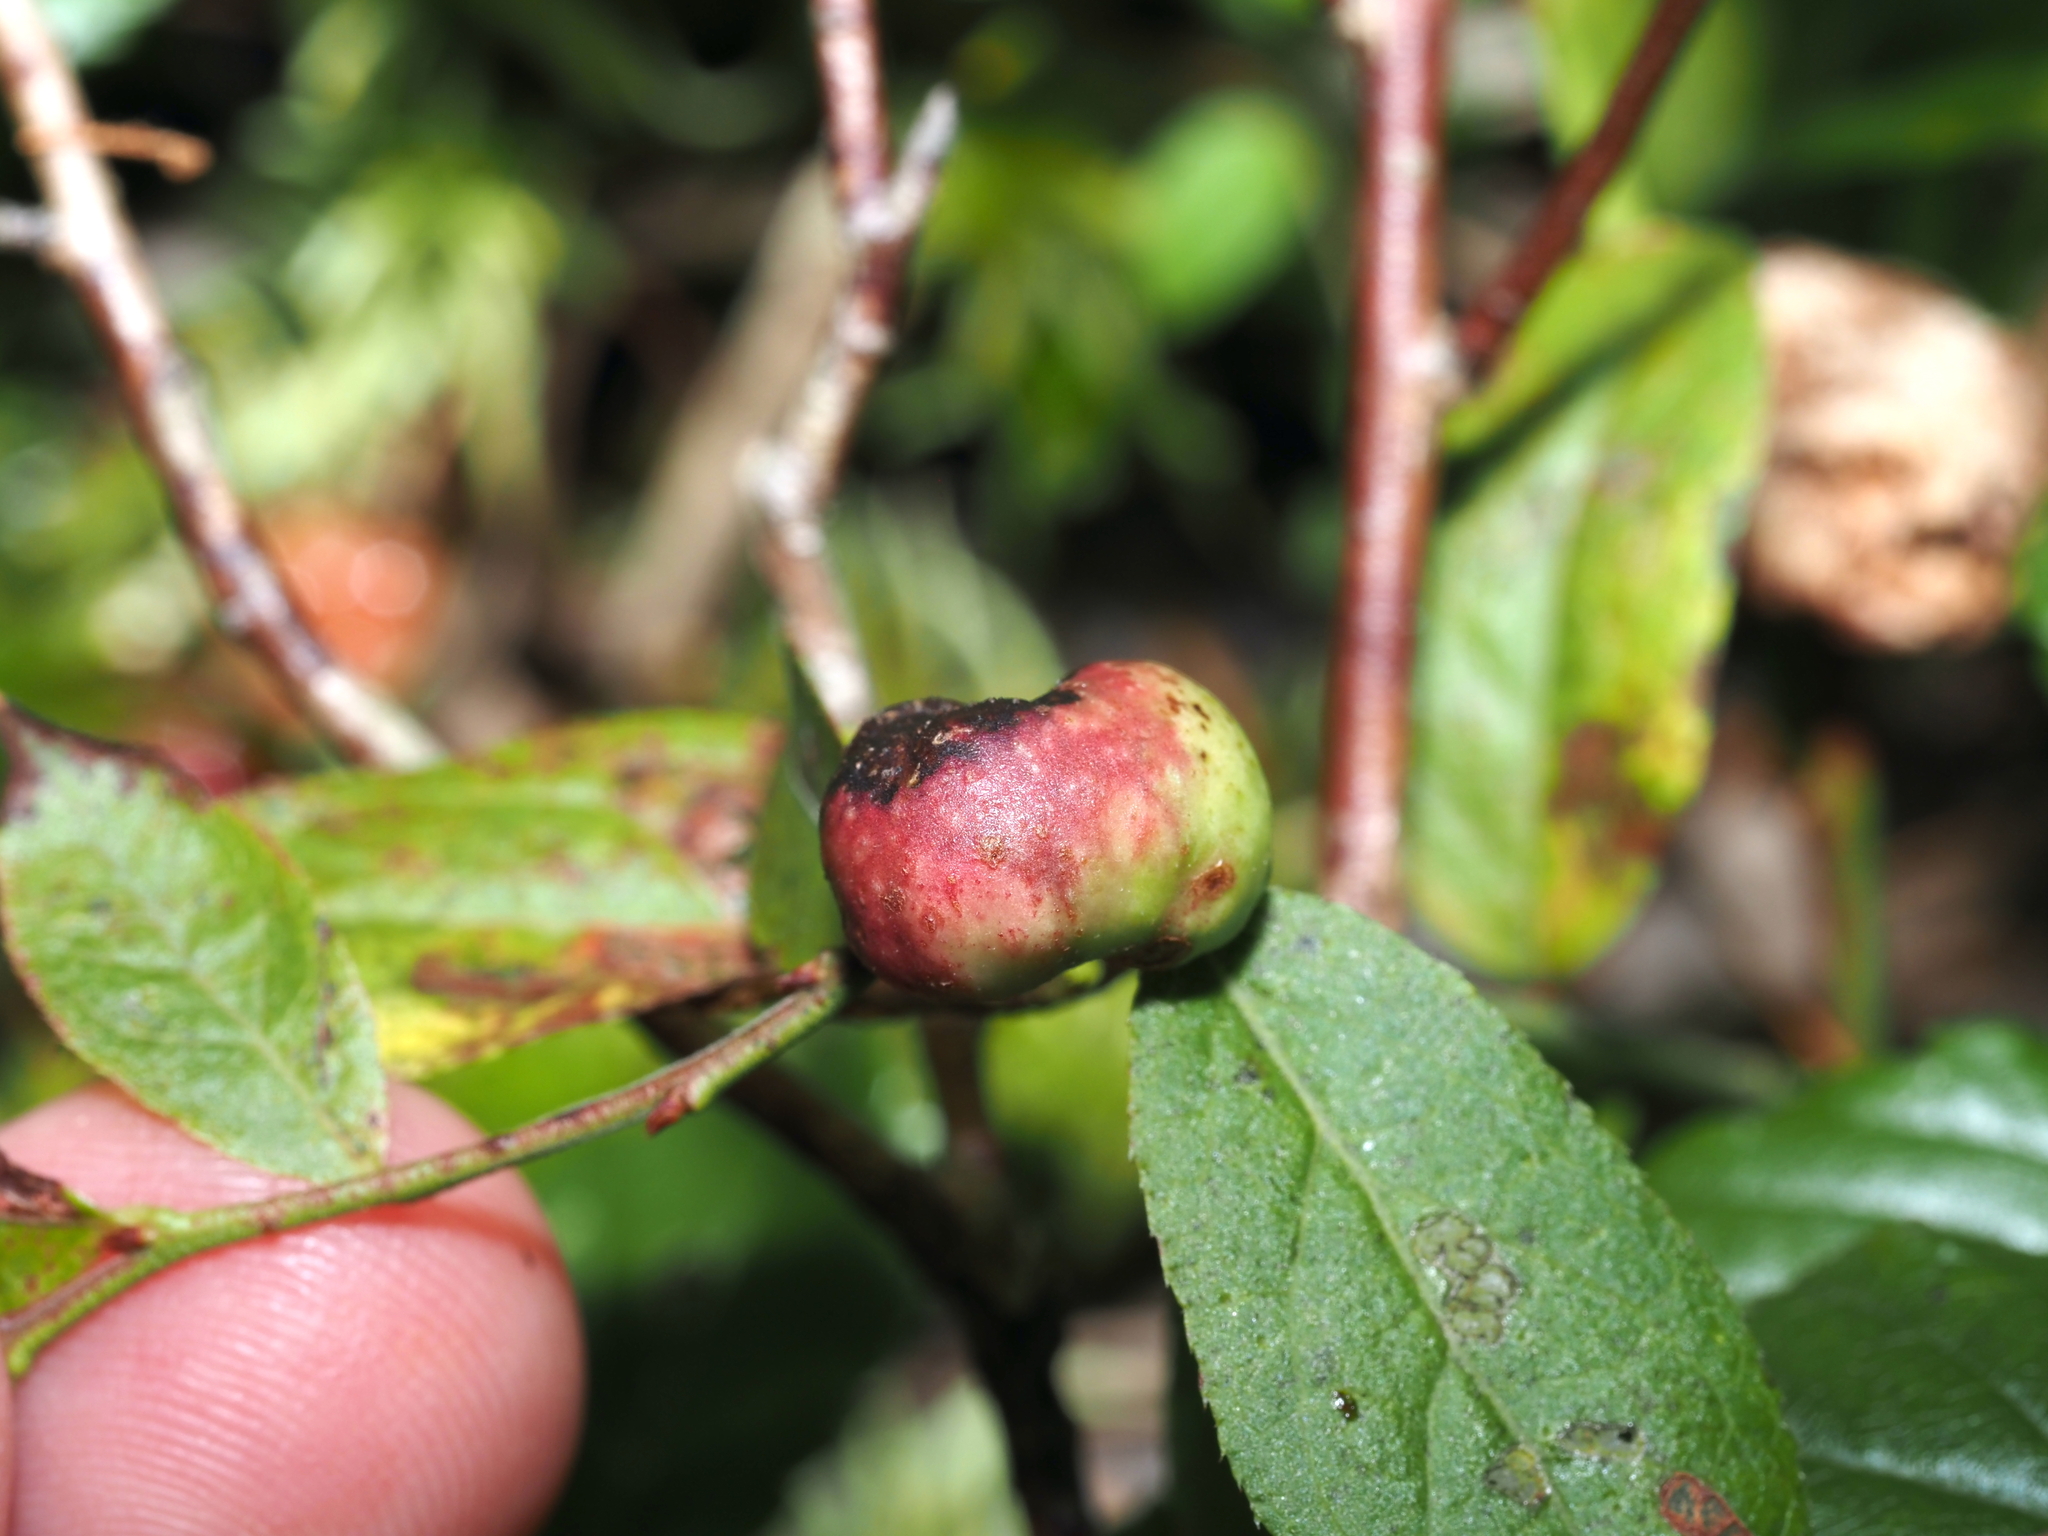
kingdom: Animalia
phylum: Arthropoda
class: Insecta
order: Hymenoptera
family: Pteromalidae
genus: Hemadas
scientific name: Hemadas nubilipennis
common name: Blueberry stem gall wasp
